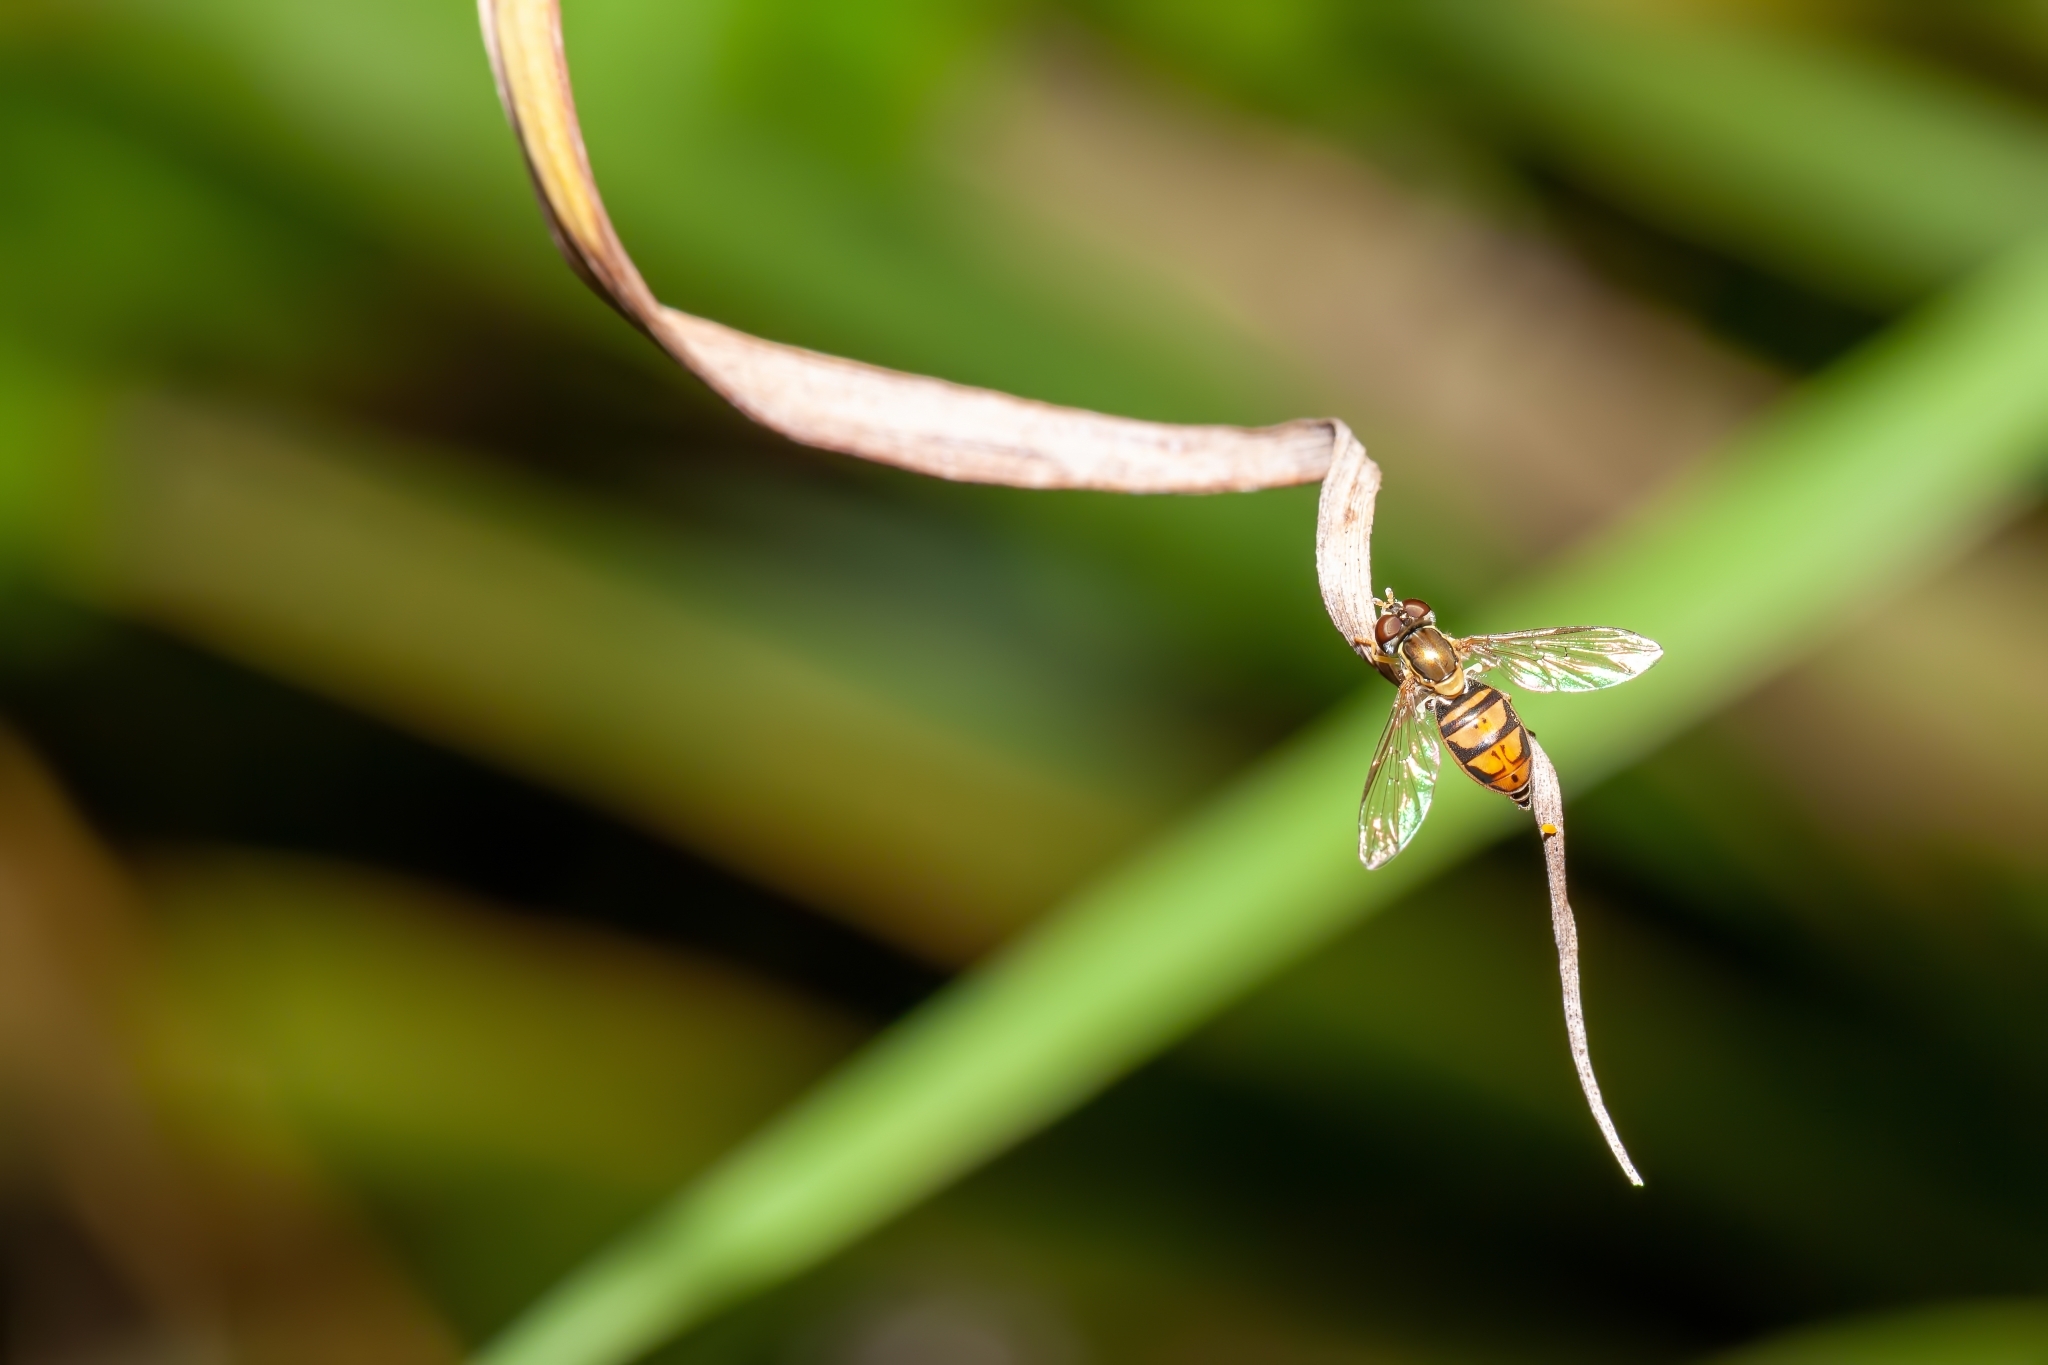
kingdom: Animalia
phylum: Arthropoda
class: Insecta
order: Diptera
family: Syrphidae
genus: Toxomerus
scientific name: Toxomerus marginatus
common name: Syrphid fly
